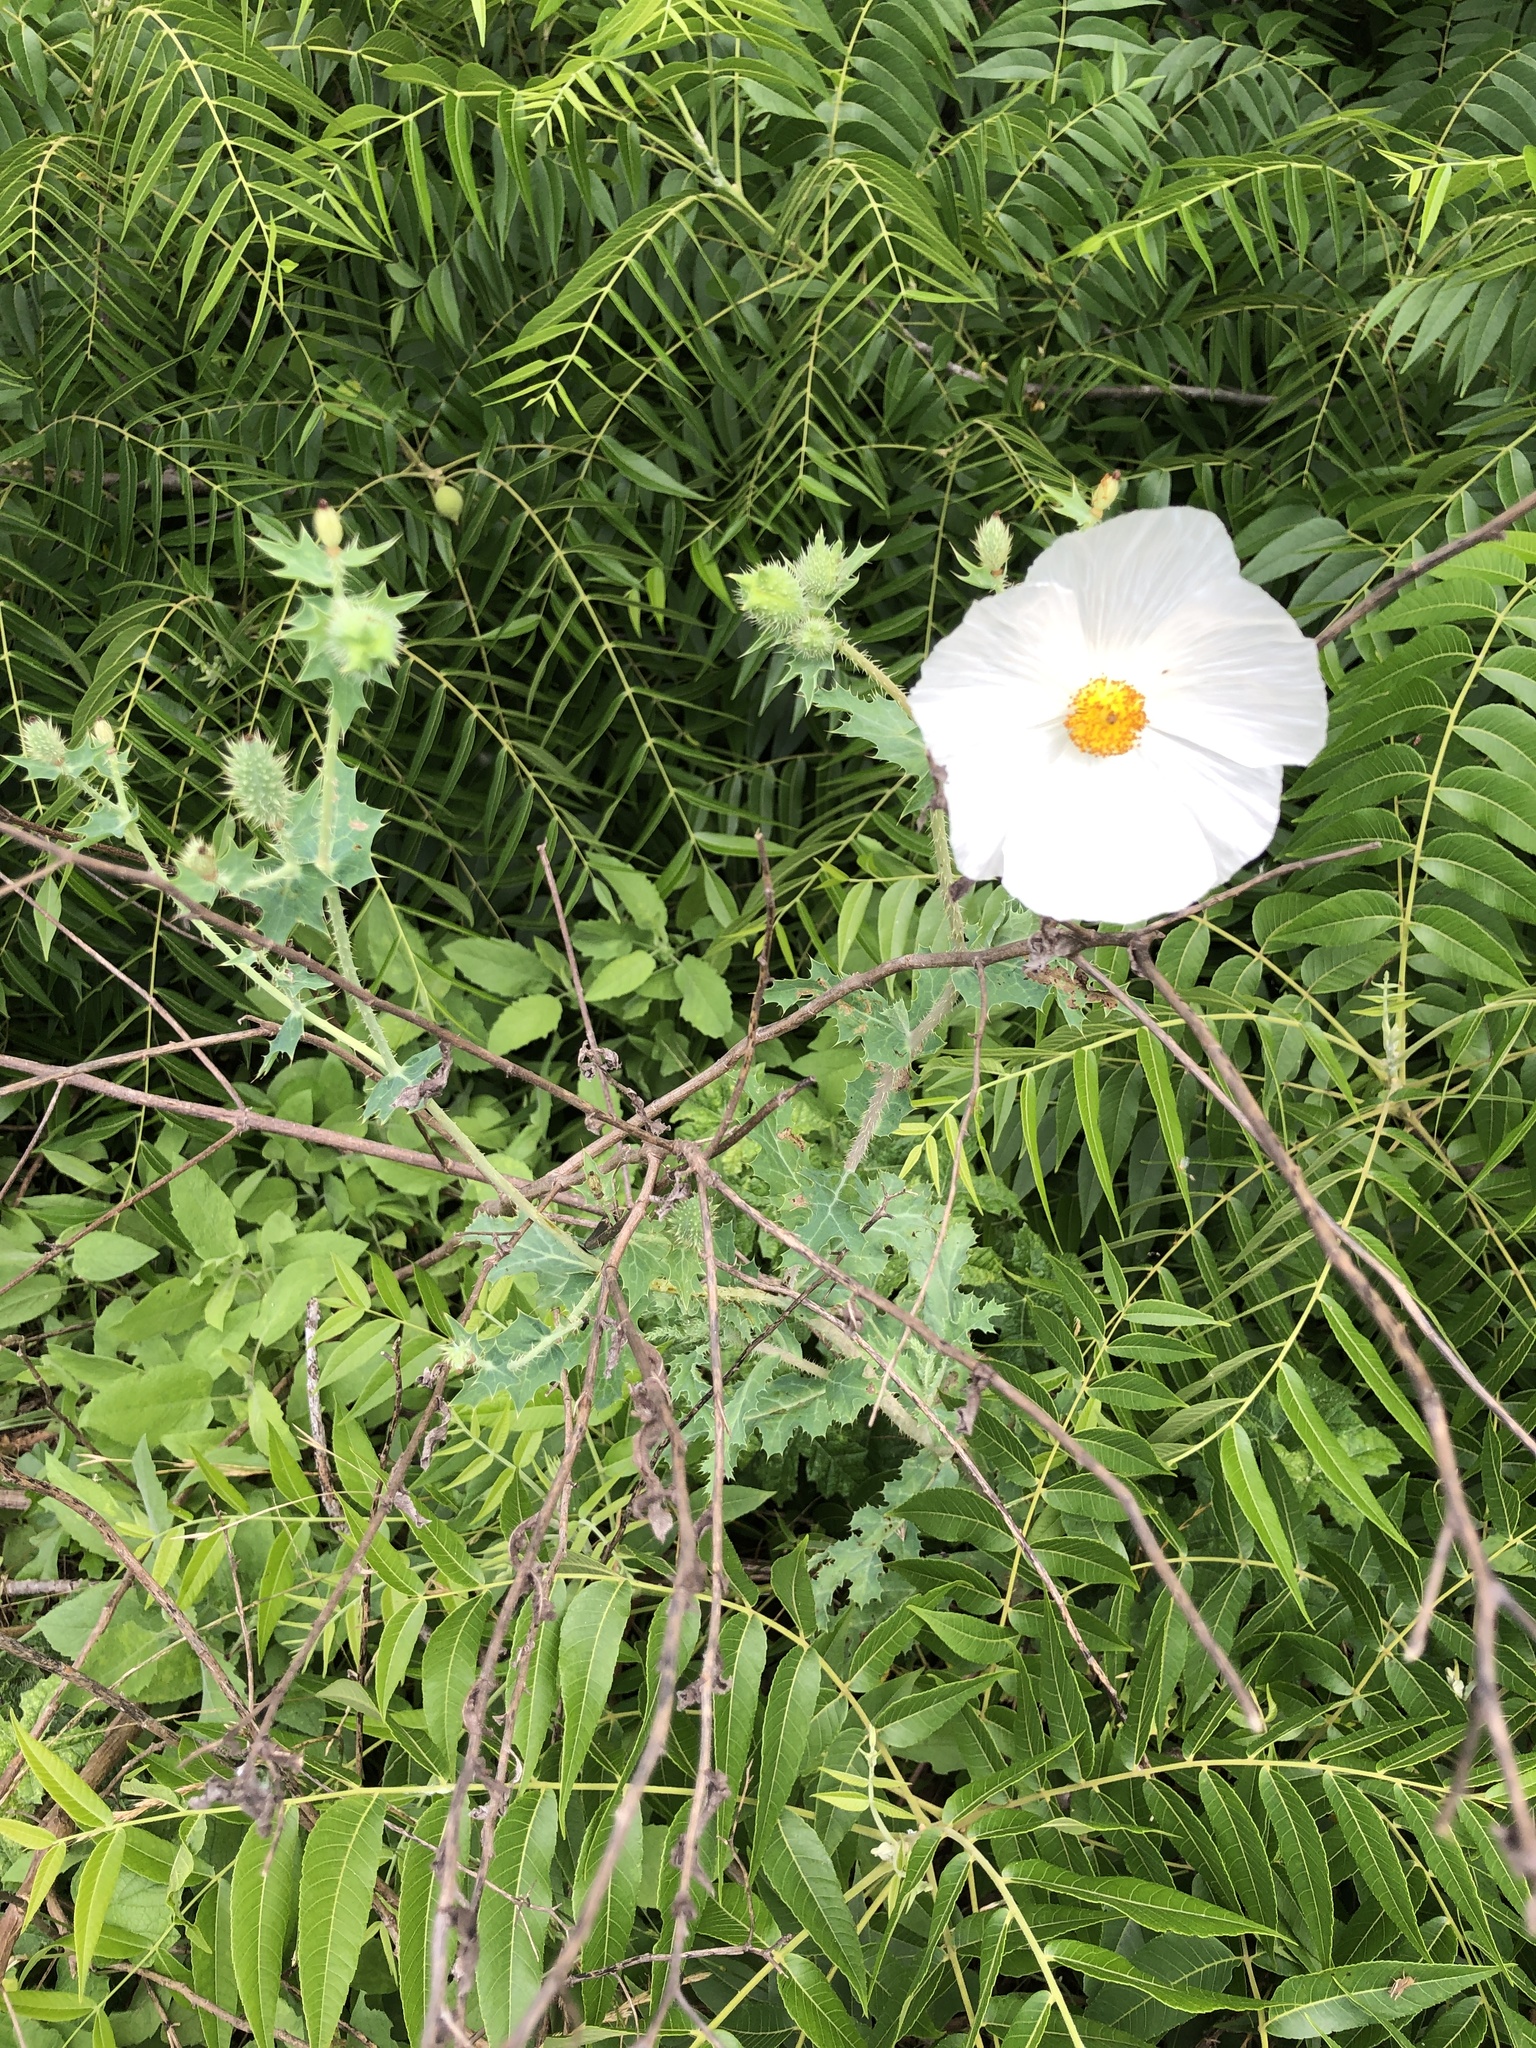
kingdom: Plantae
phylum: Tracheophyta
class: Magnoliopsida
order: Ranunculales
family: Papaveraceae
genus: Argemone
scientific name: Argemone albiflora
